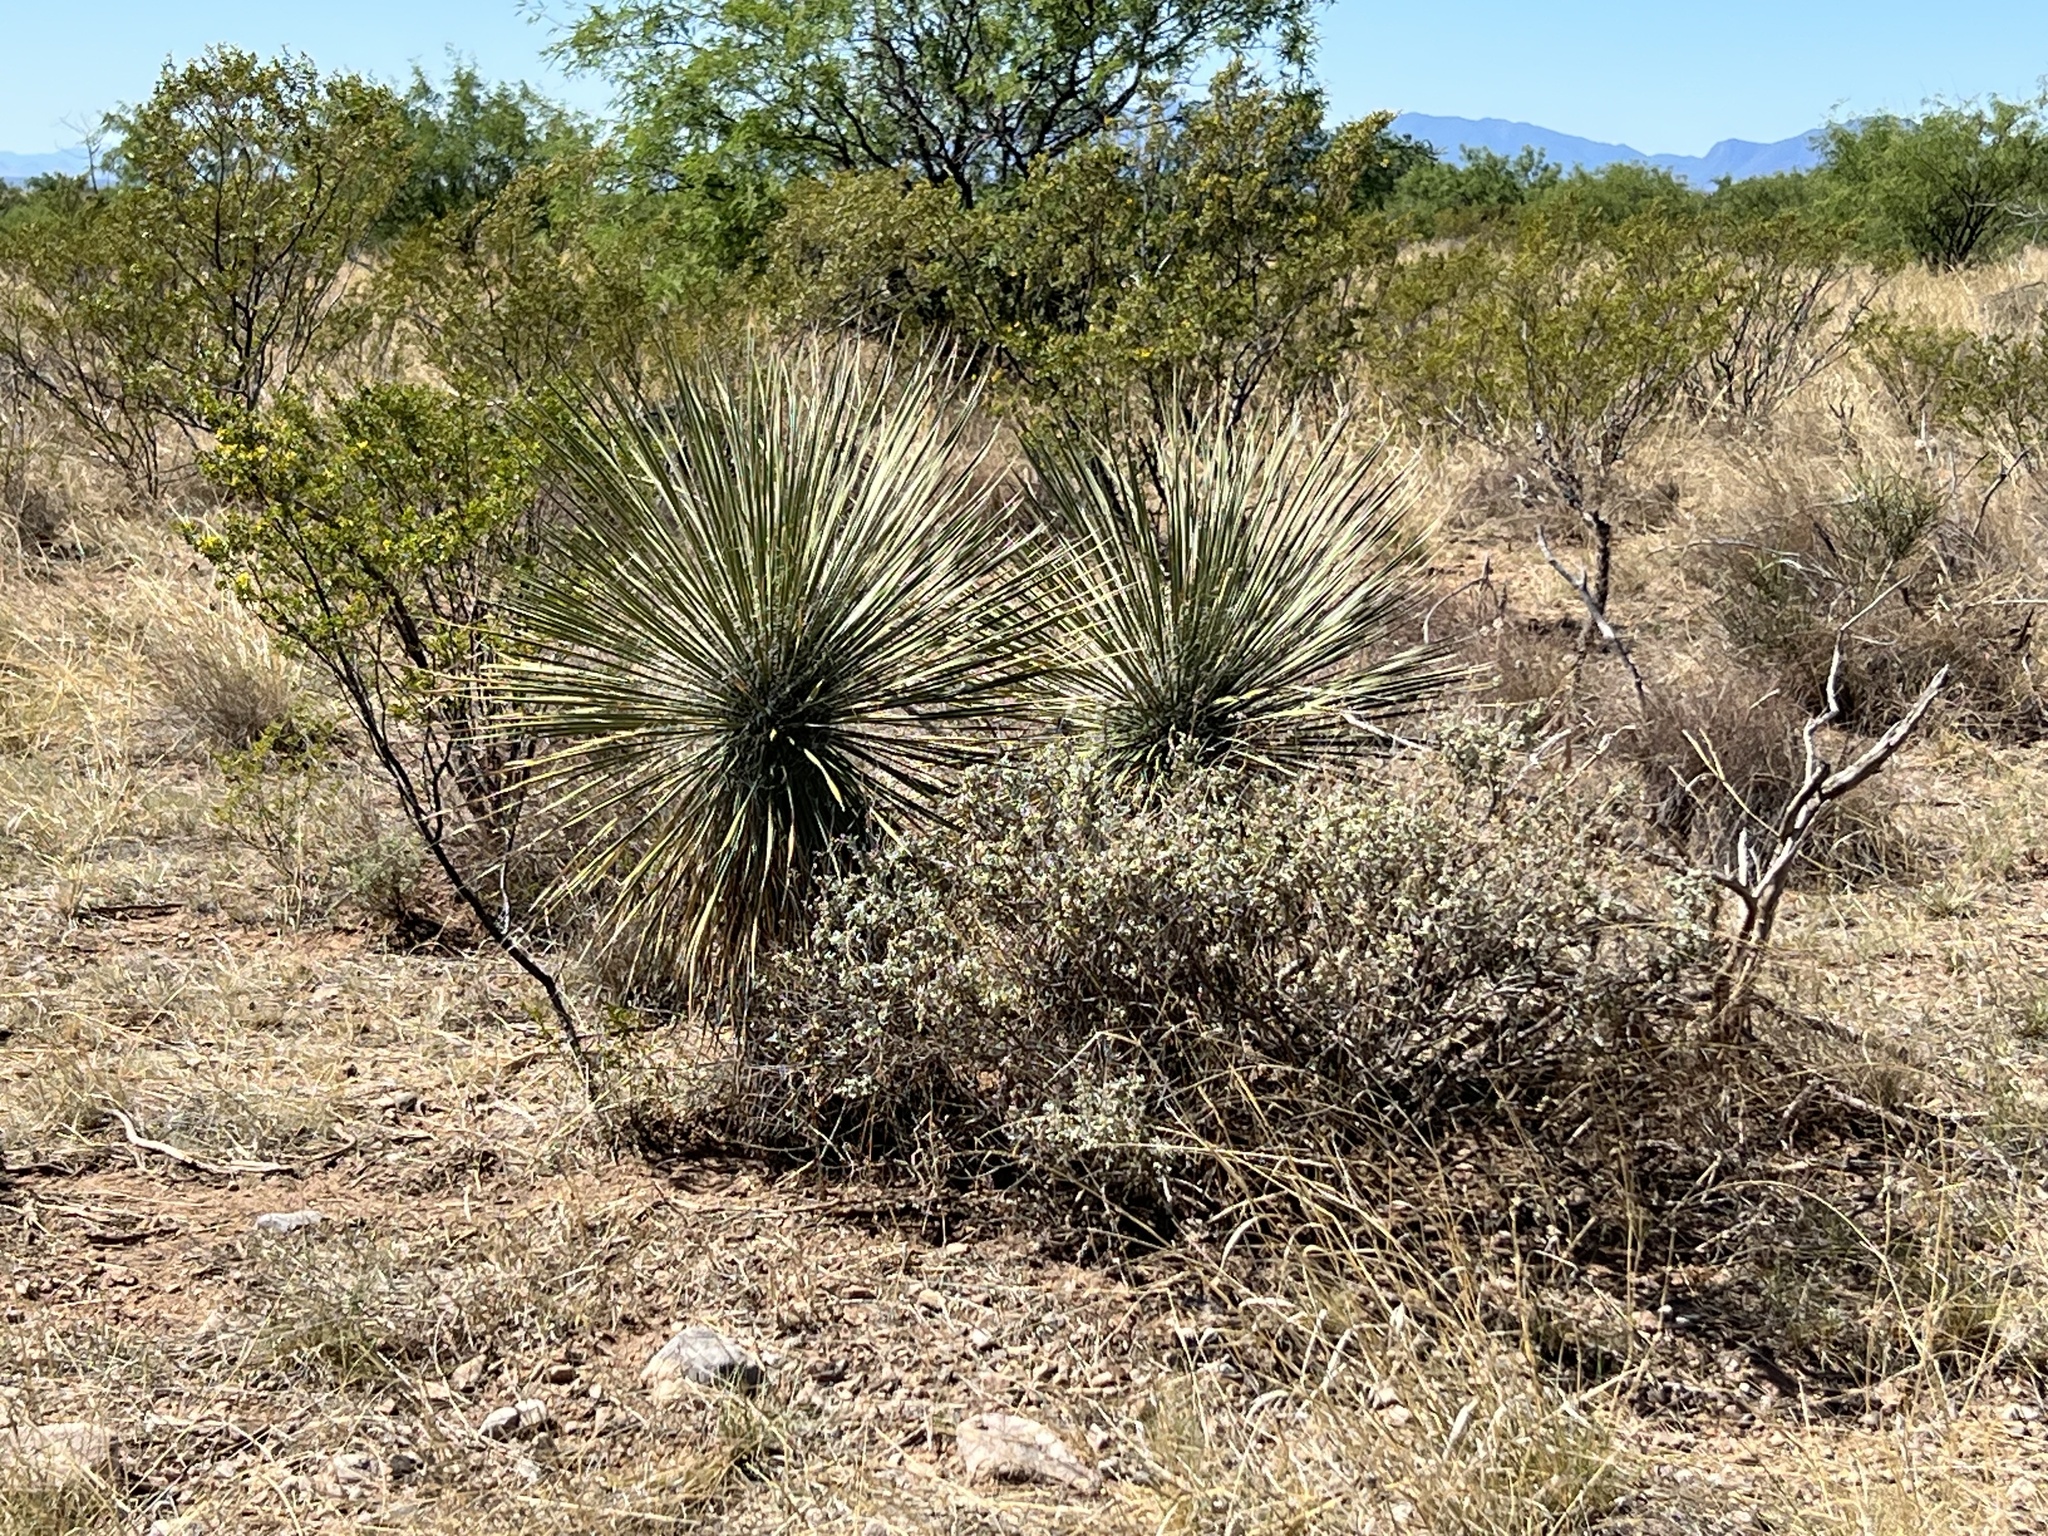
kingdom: Plantae
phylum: Tracheophyta
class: Liliopsida
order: Asparagales
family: Asparagaceae
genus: Yucca
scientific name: Yucca elata
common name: Palmella
